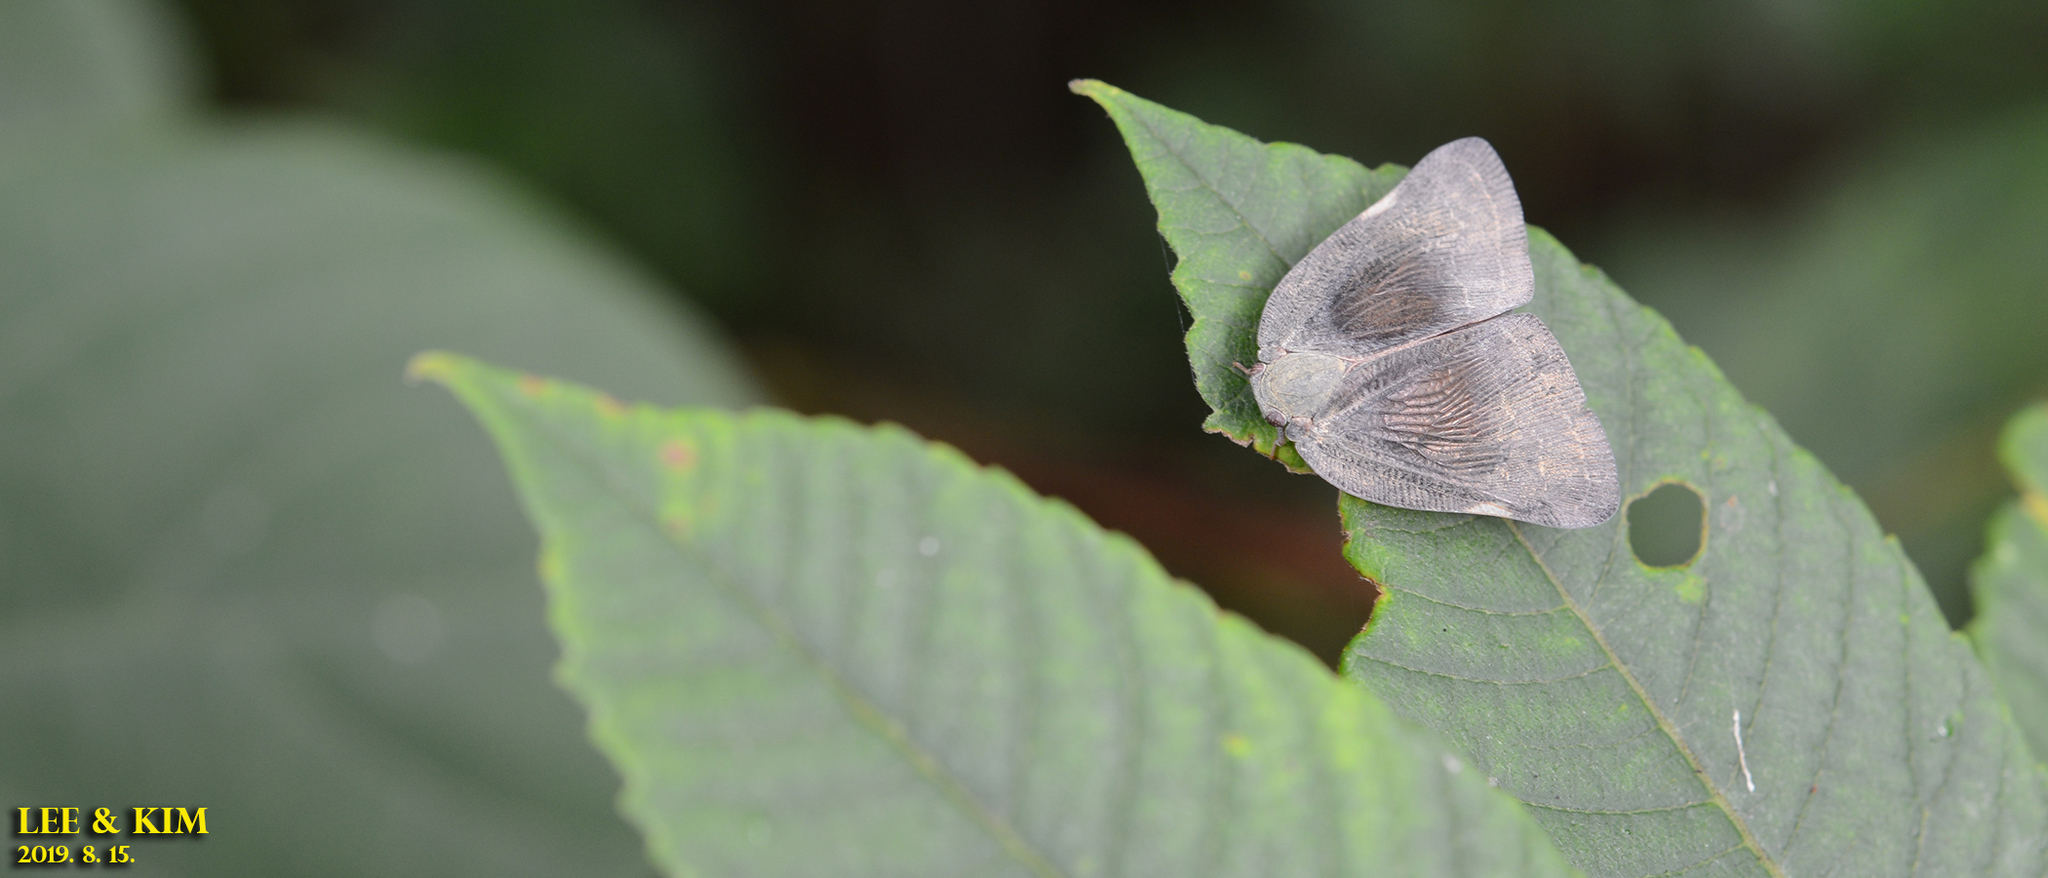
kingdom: Animalia
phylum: Arthropoda
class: Insecta
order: Hemiptera
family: Ricaniidae
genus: Ricanula
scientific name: Ricanula sublimata
